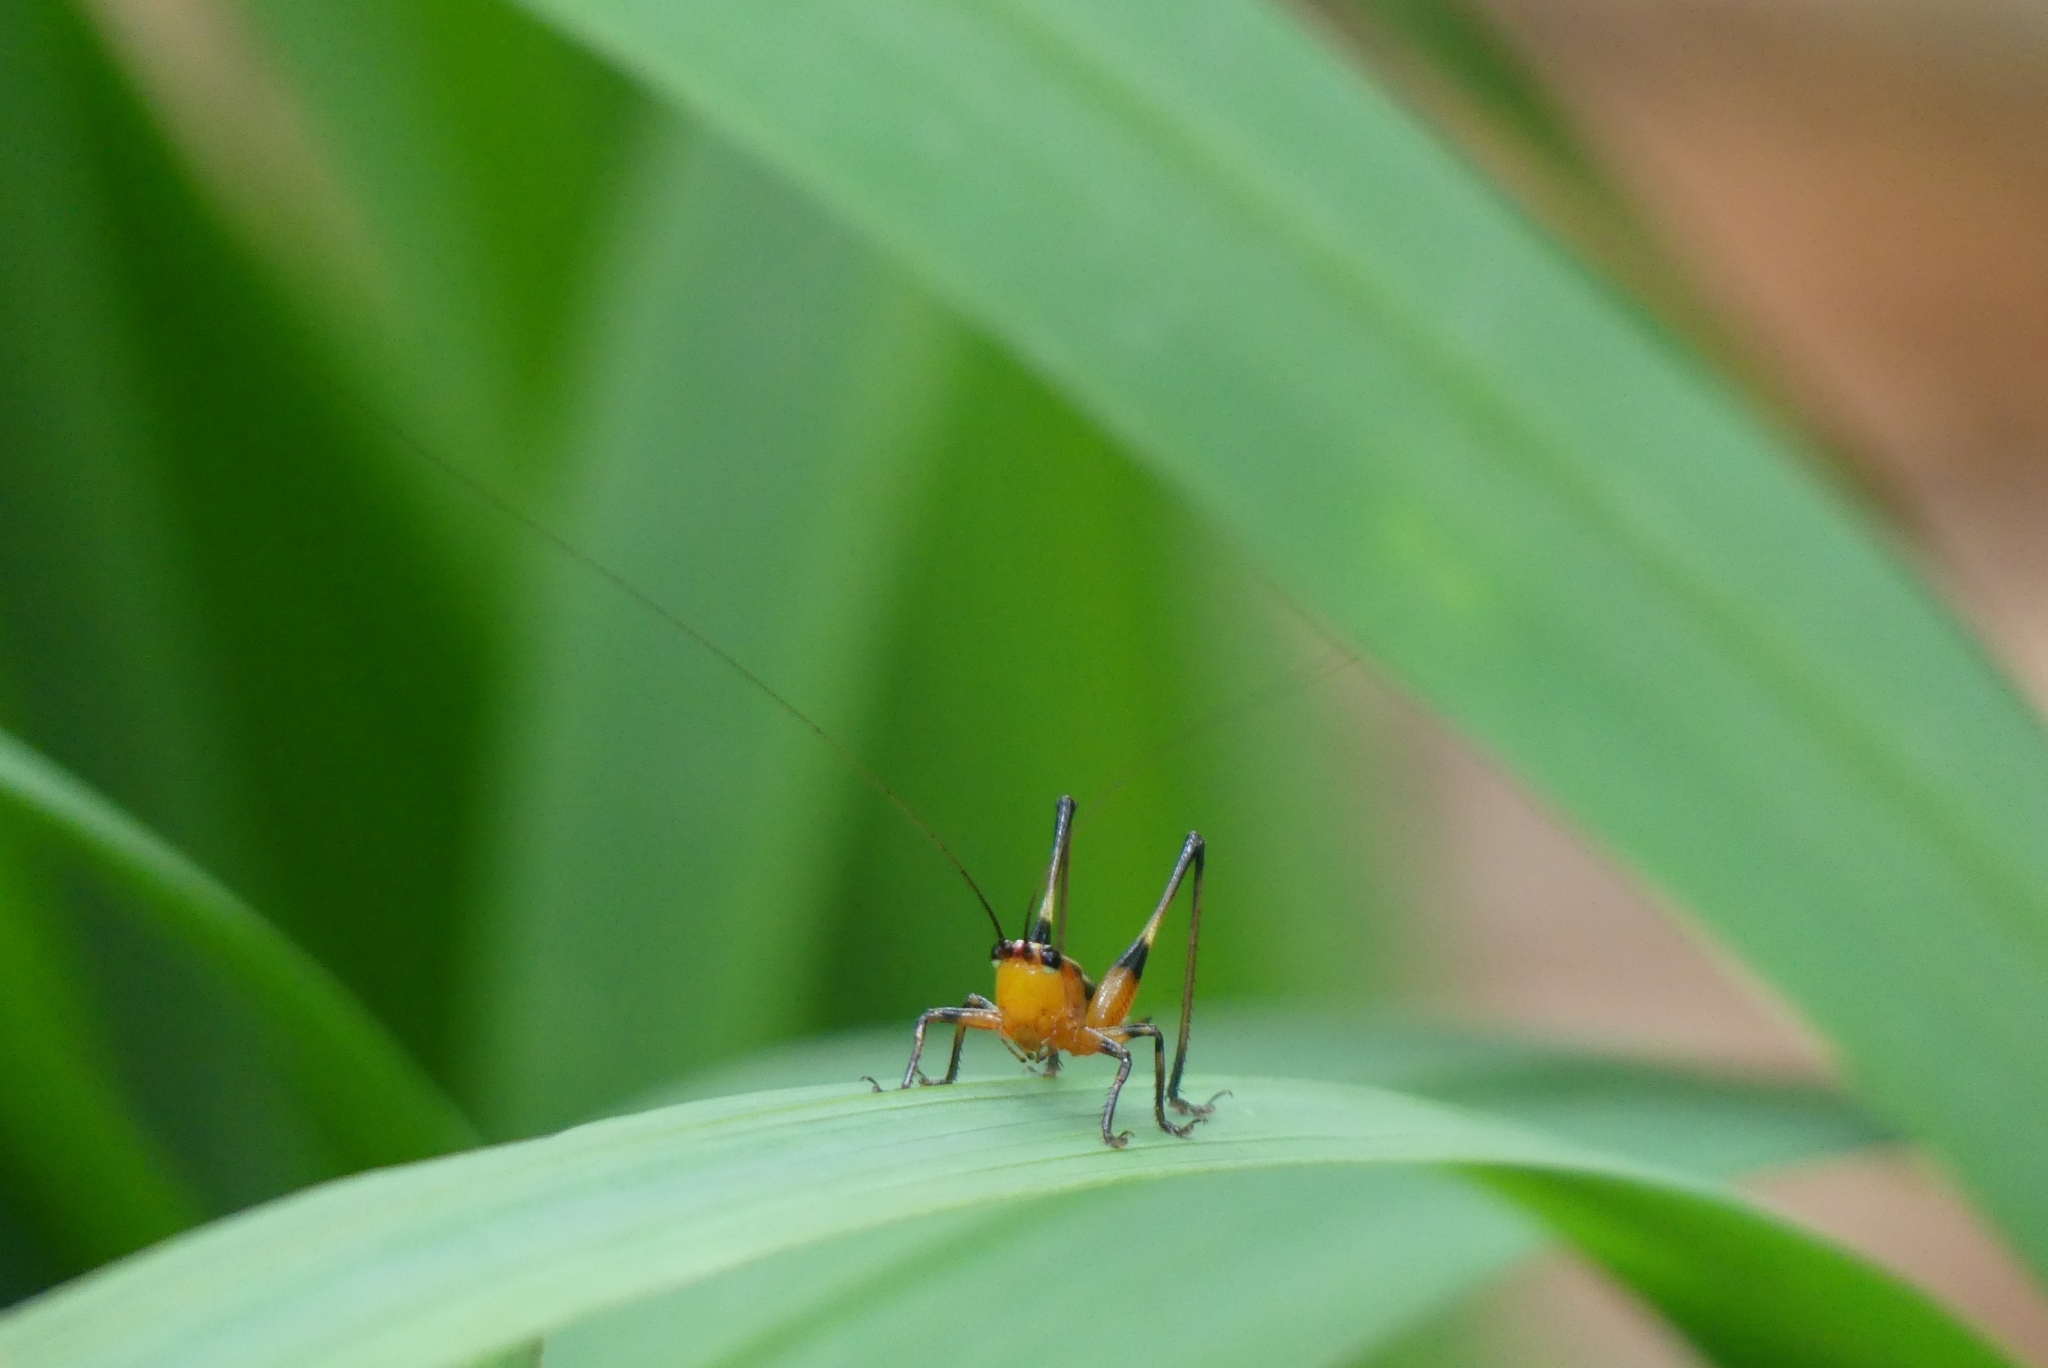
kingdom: Animalia
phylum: Arthropoda
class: Insecta
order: Orthoptera
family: Tettigoniidae
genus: Conocephalus
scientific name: Conocephalus melaenus
